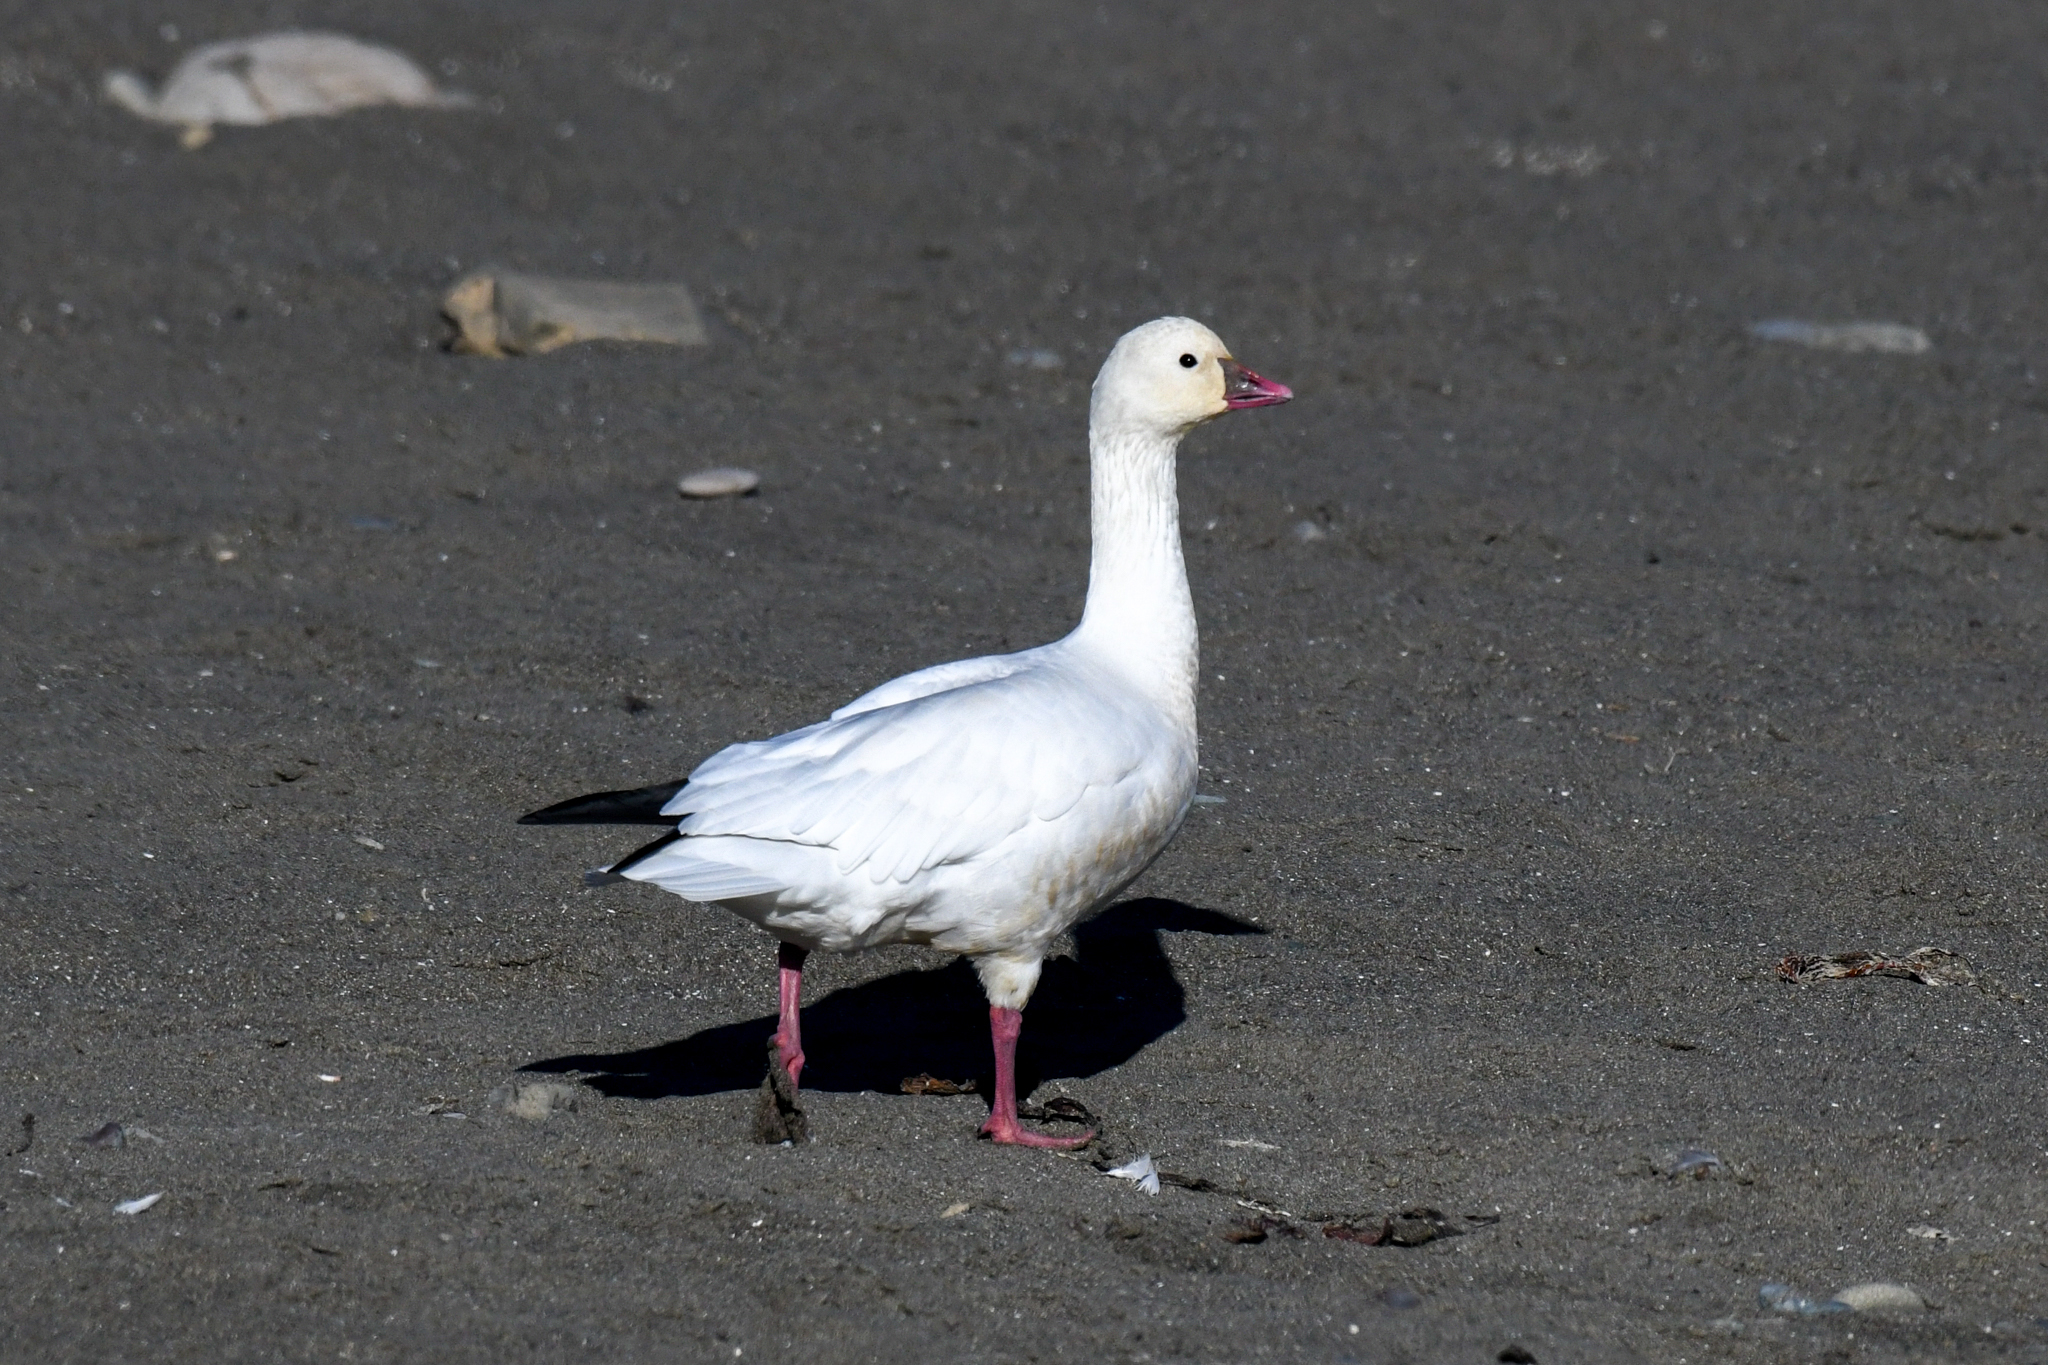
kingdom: Animalia
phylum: Chordata
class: Aves
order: Anseriformes
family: Anatidae
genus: Anser
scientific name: Anser rossii
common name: Ross's goose
